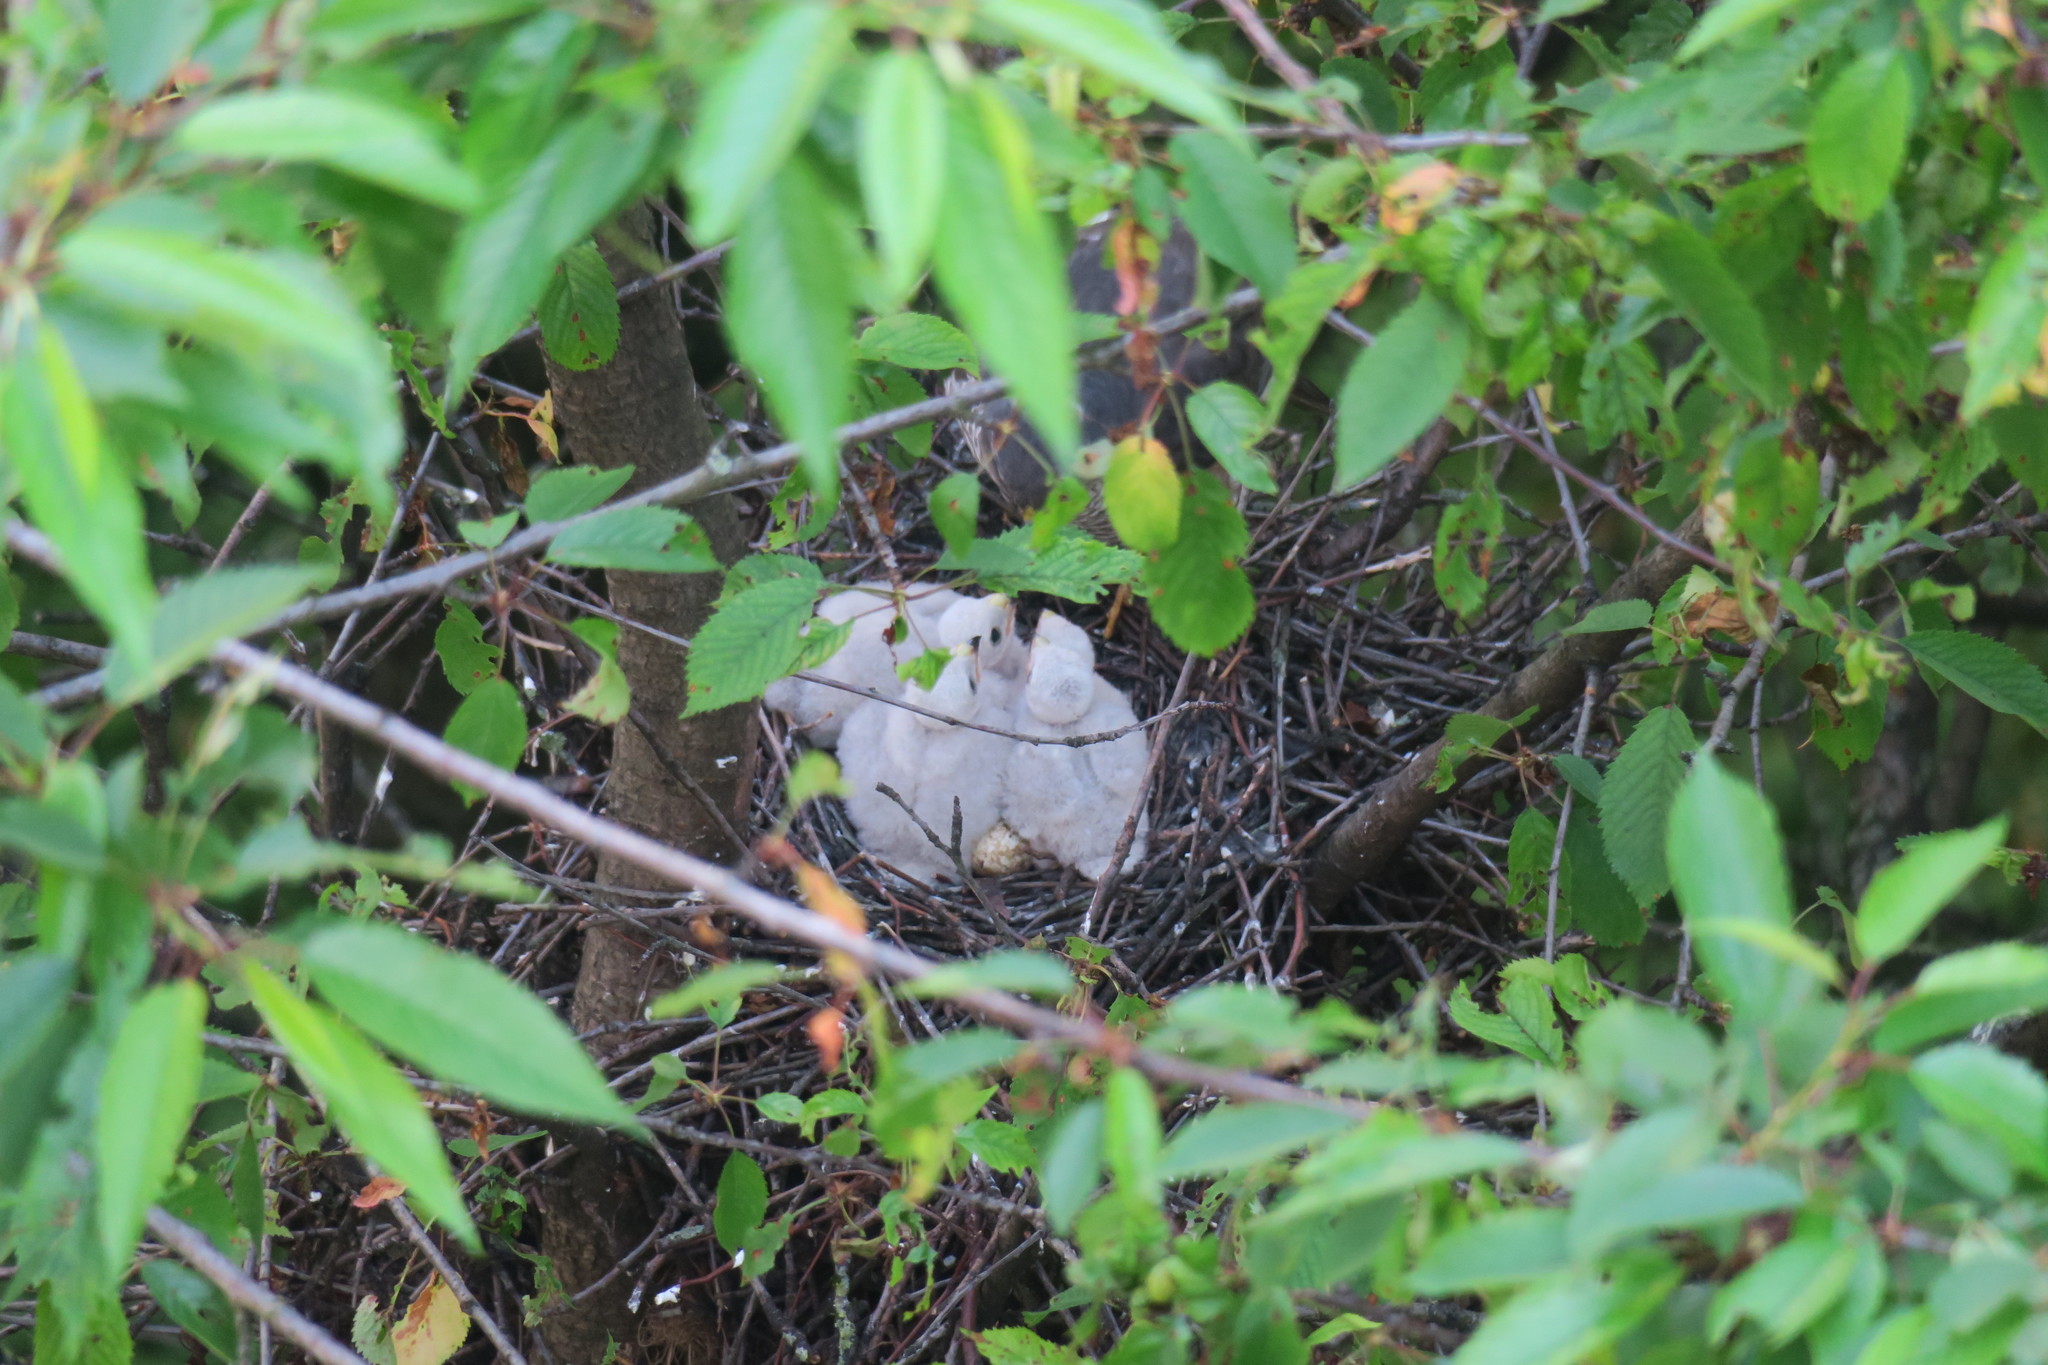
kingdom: Animalia
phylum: Chordata
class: Aves
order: Accipitriformes
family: Accipitridae
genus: Accipiter
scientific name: Accipiter nisus
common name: Eurasian sparrowhawk
